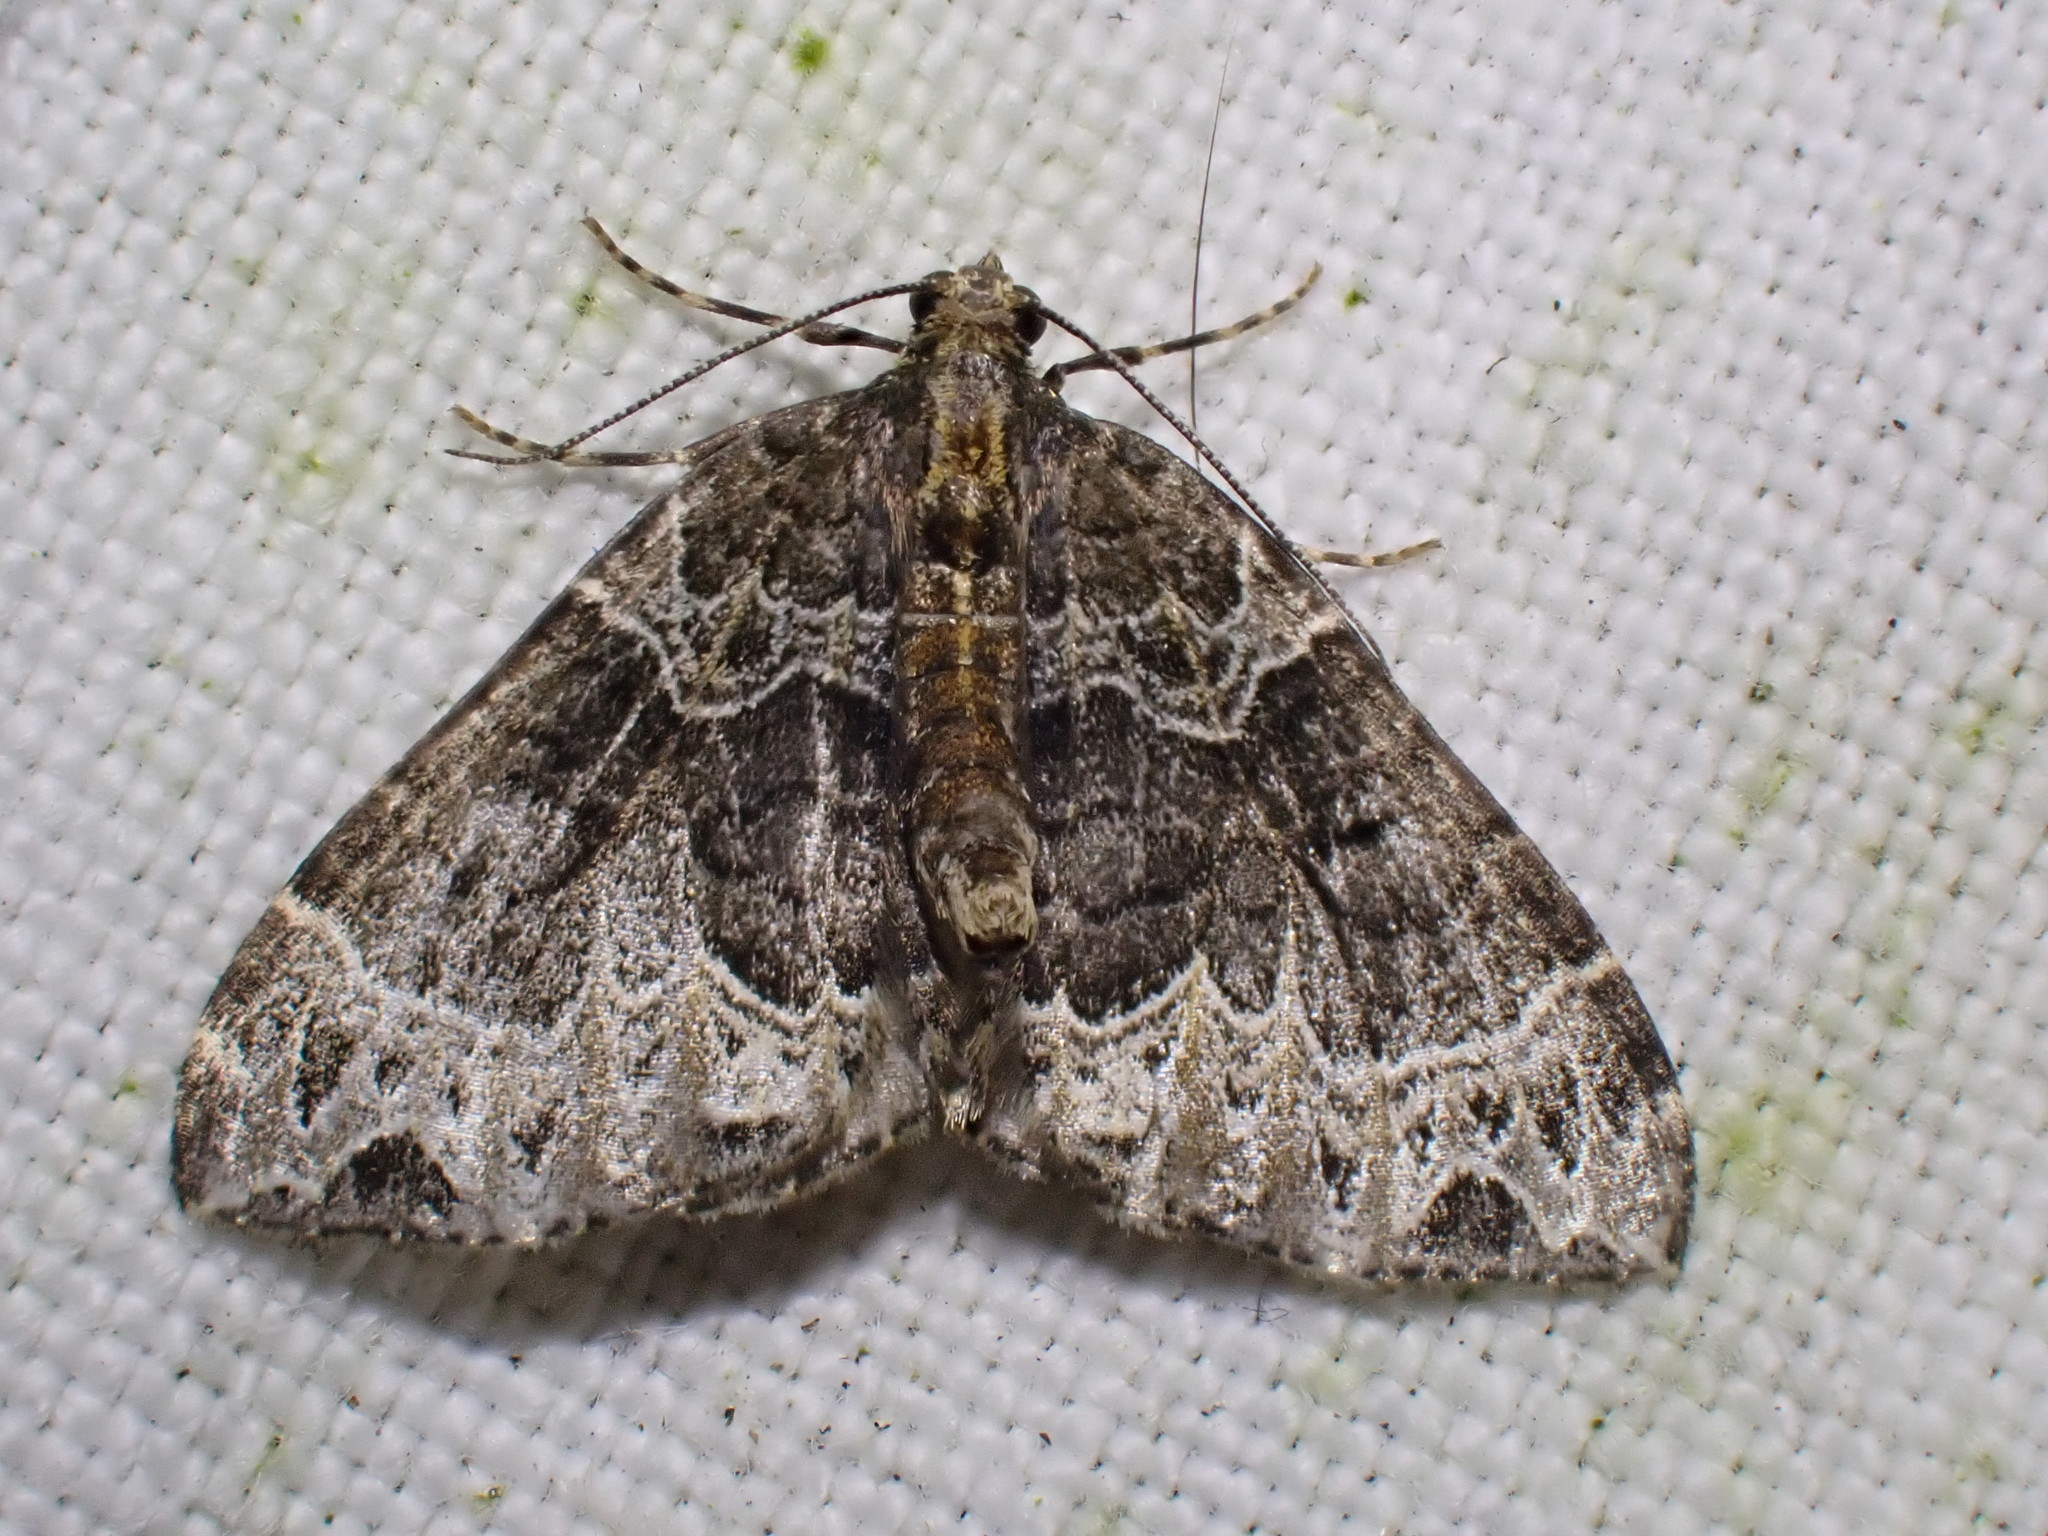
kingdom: Animalia
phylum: Arthropoda
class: Insecta
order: Lepidoptera
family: Geometridae
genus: Ecliptopera
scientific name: Ecliptopera silaceata
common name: Small phoenix
